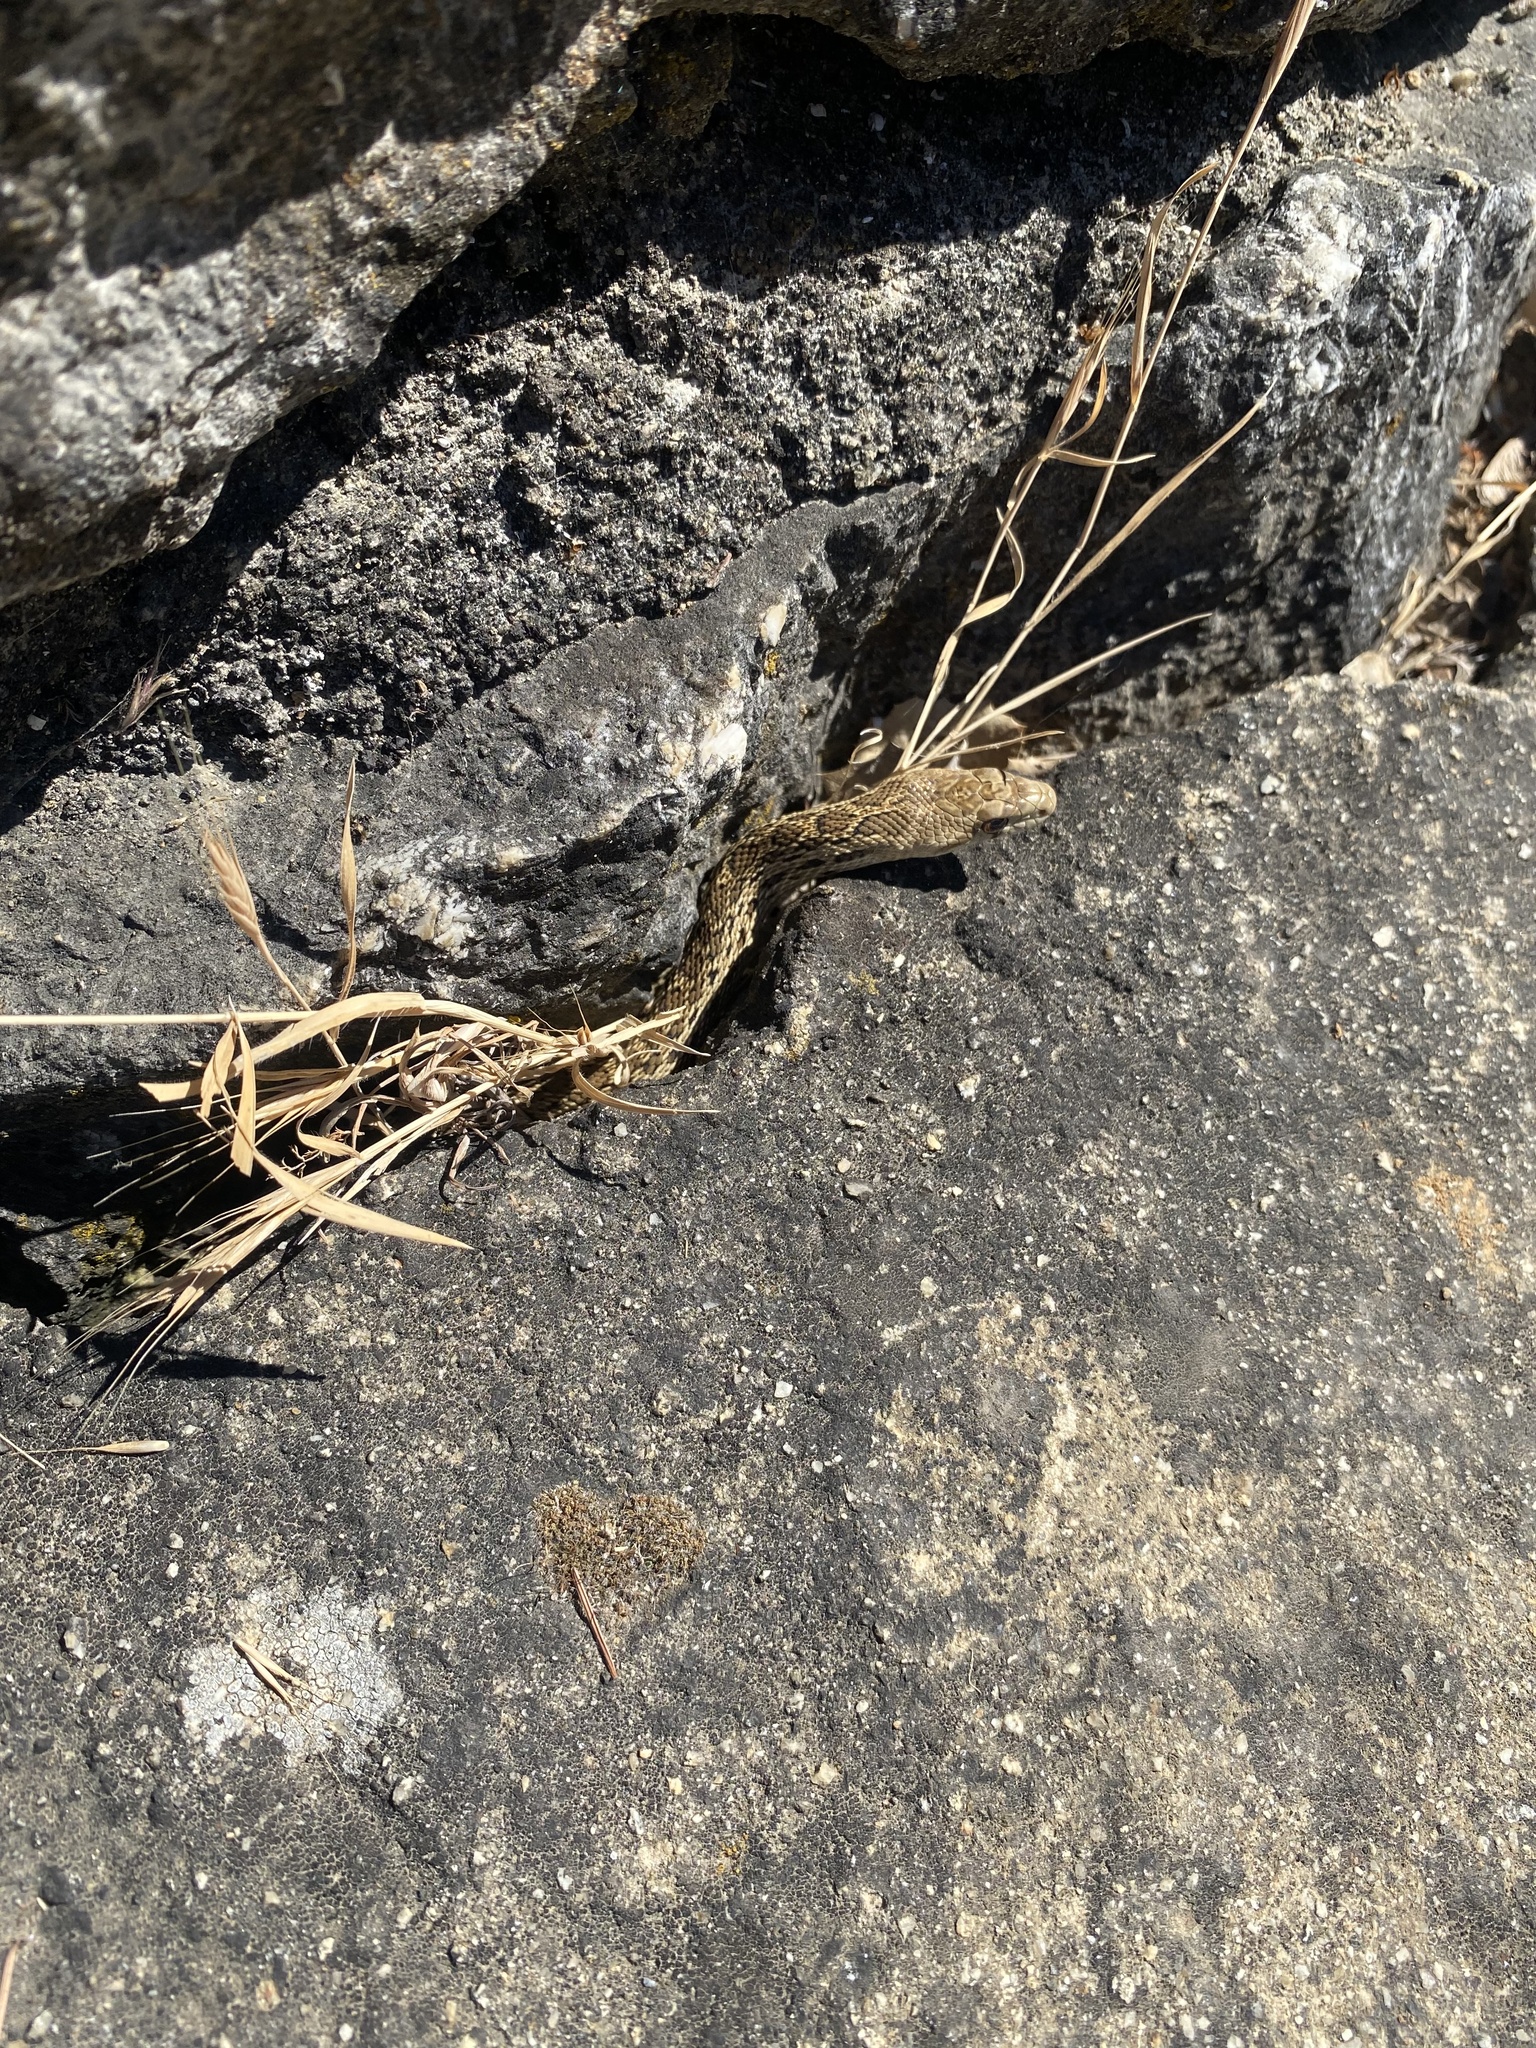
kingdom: Animalia
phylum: Chordata
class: Squamata
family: Colubridae
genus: Pituophis
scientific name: Pituophis catenifer
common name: Gopher snake
